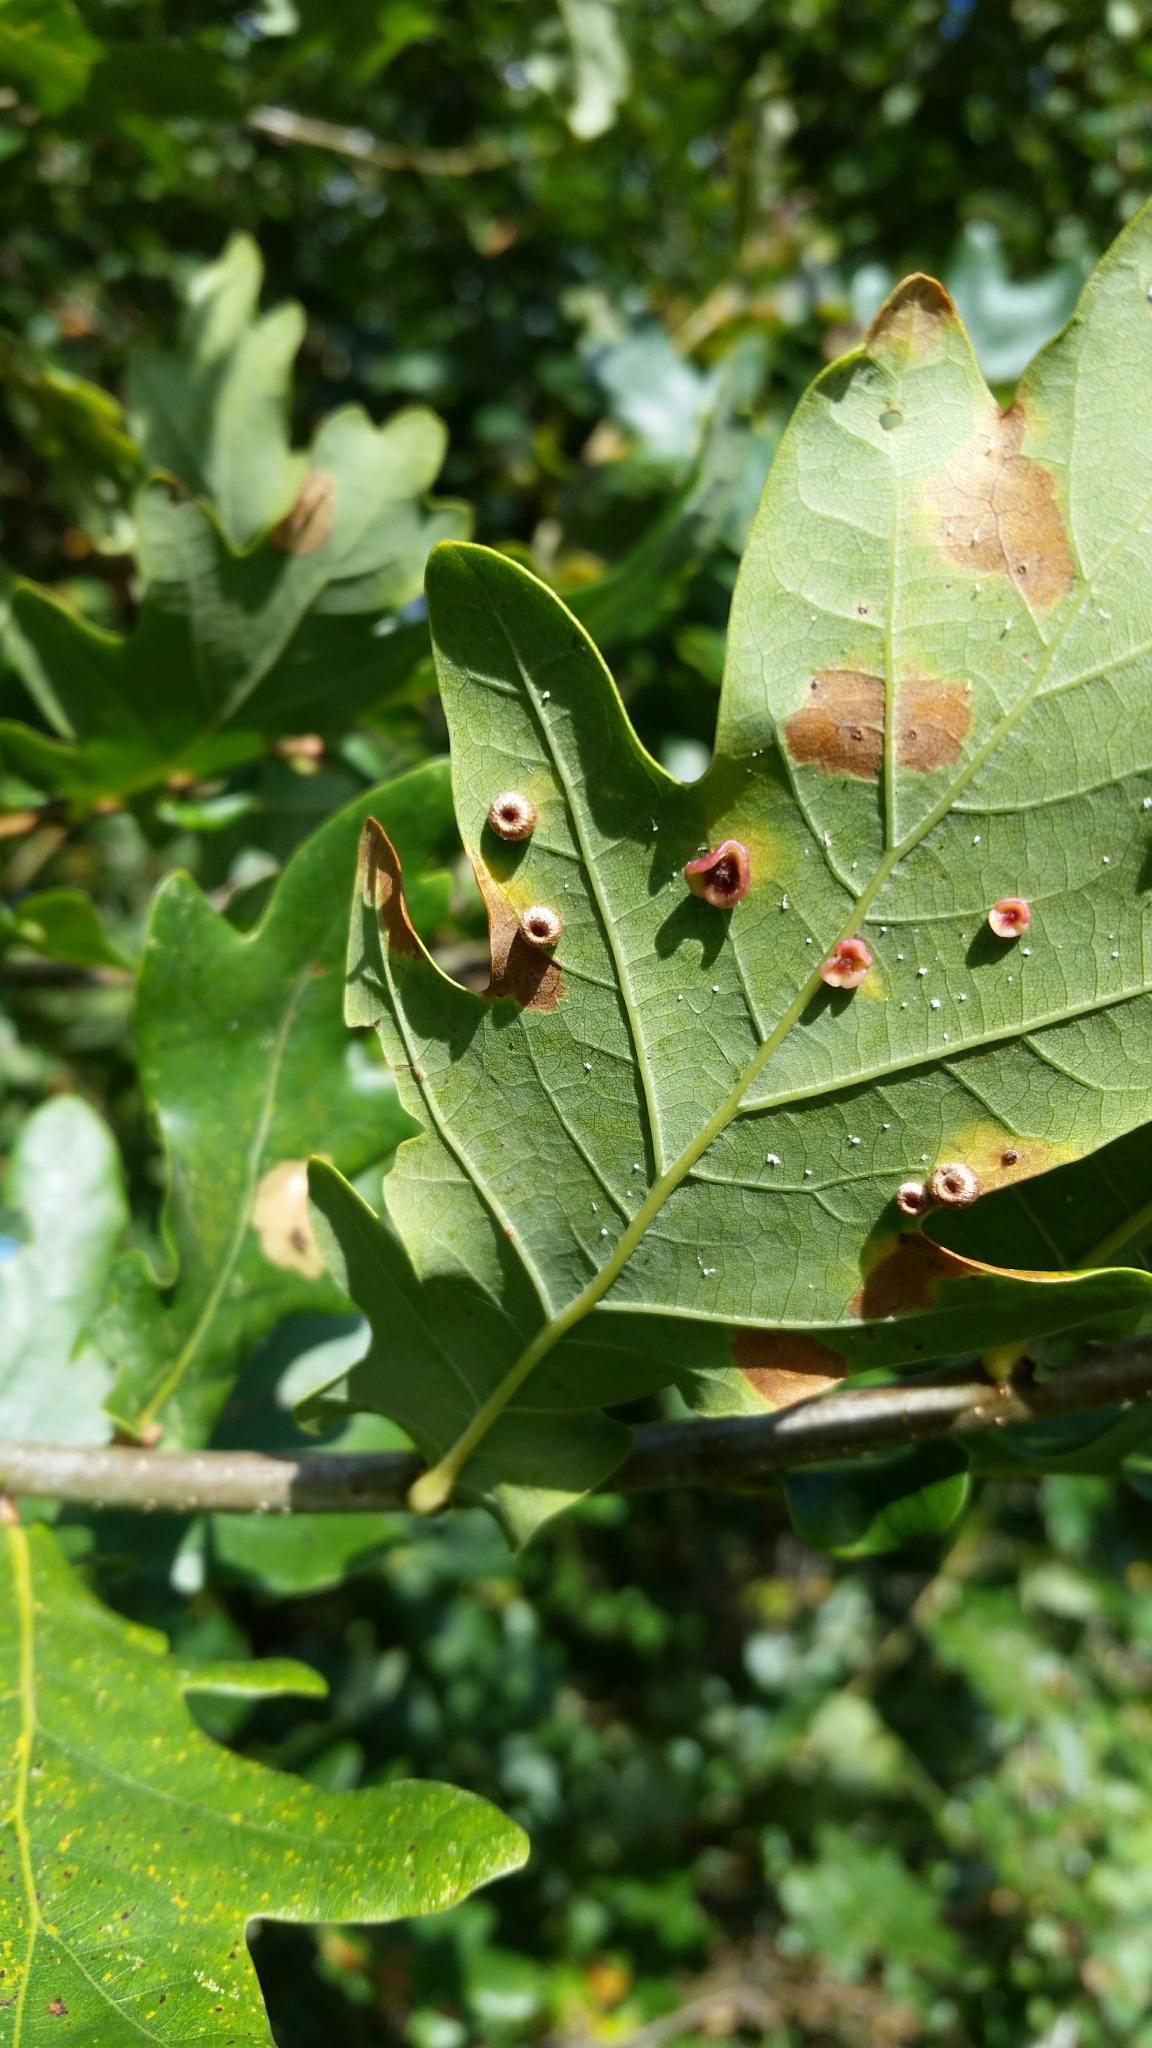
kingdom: Animalia
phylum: Arthropoda
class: Insecta
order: Hymenoptera
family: Cynipidae
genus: Neuroterus
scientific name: Neuroterus numismalis
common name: Silk-button spangle gall
